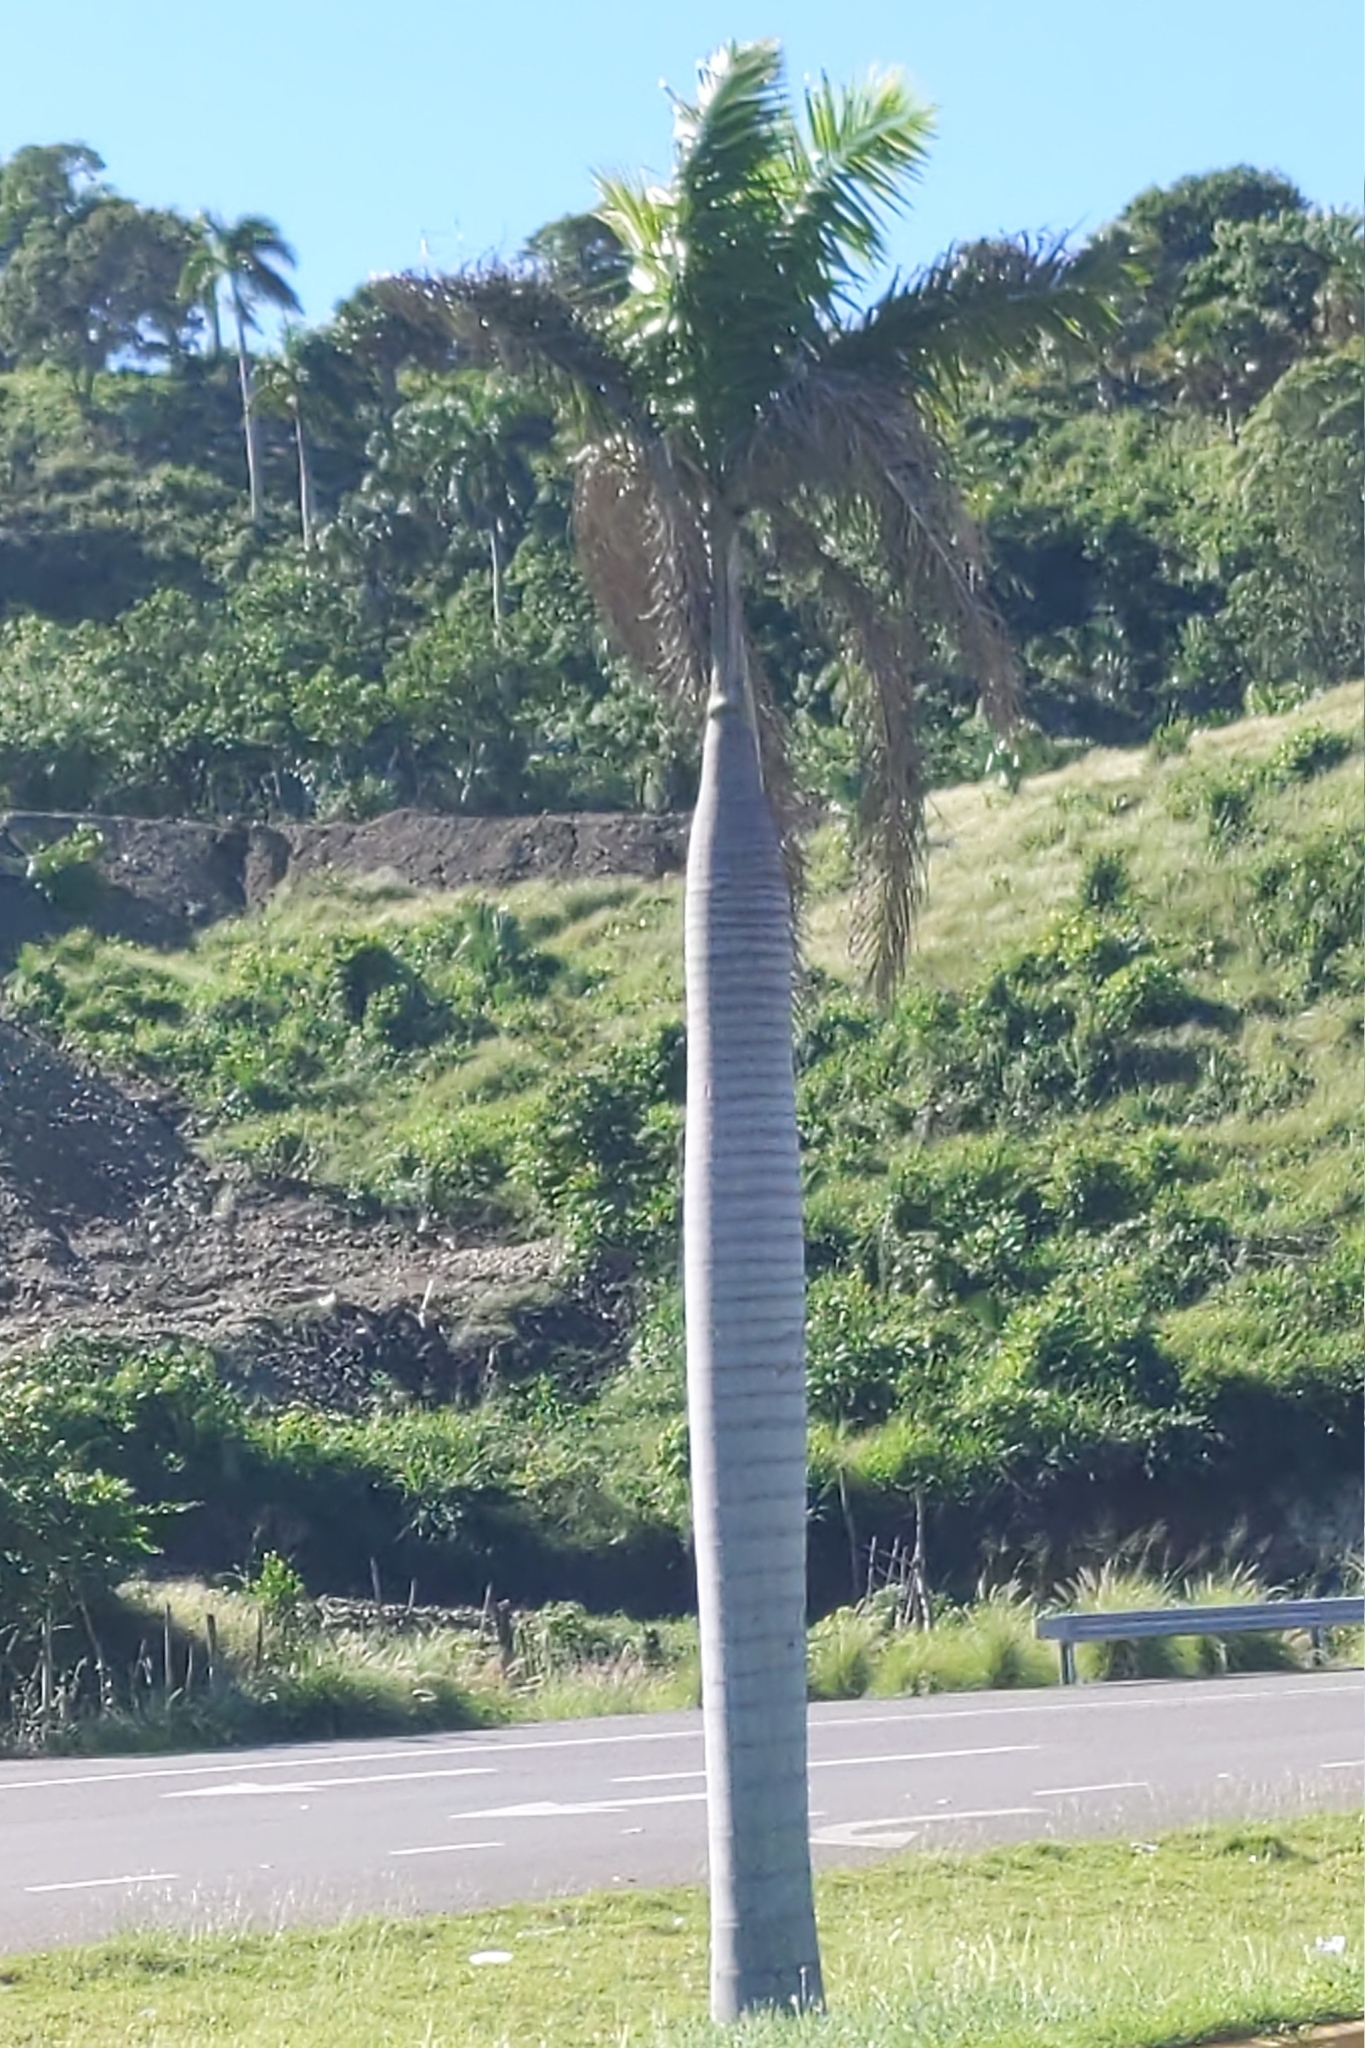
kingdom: Plantae
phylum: Tracheophyta
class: Liliopsida
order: Arecales
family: Arecaceae
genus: Roystonea
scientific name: Roystonea borinquena
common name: Puerto rican royal palm
